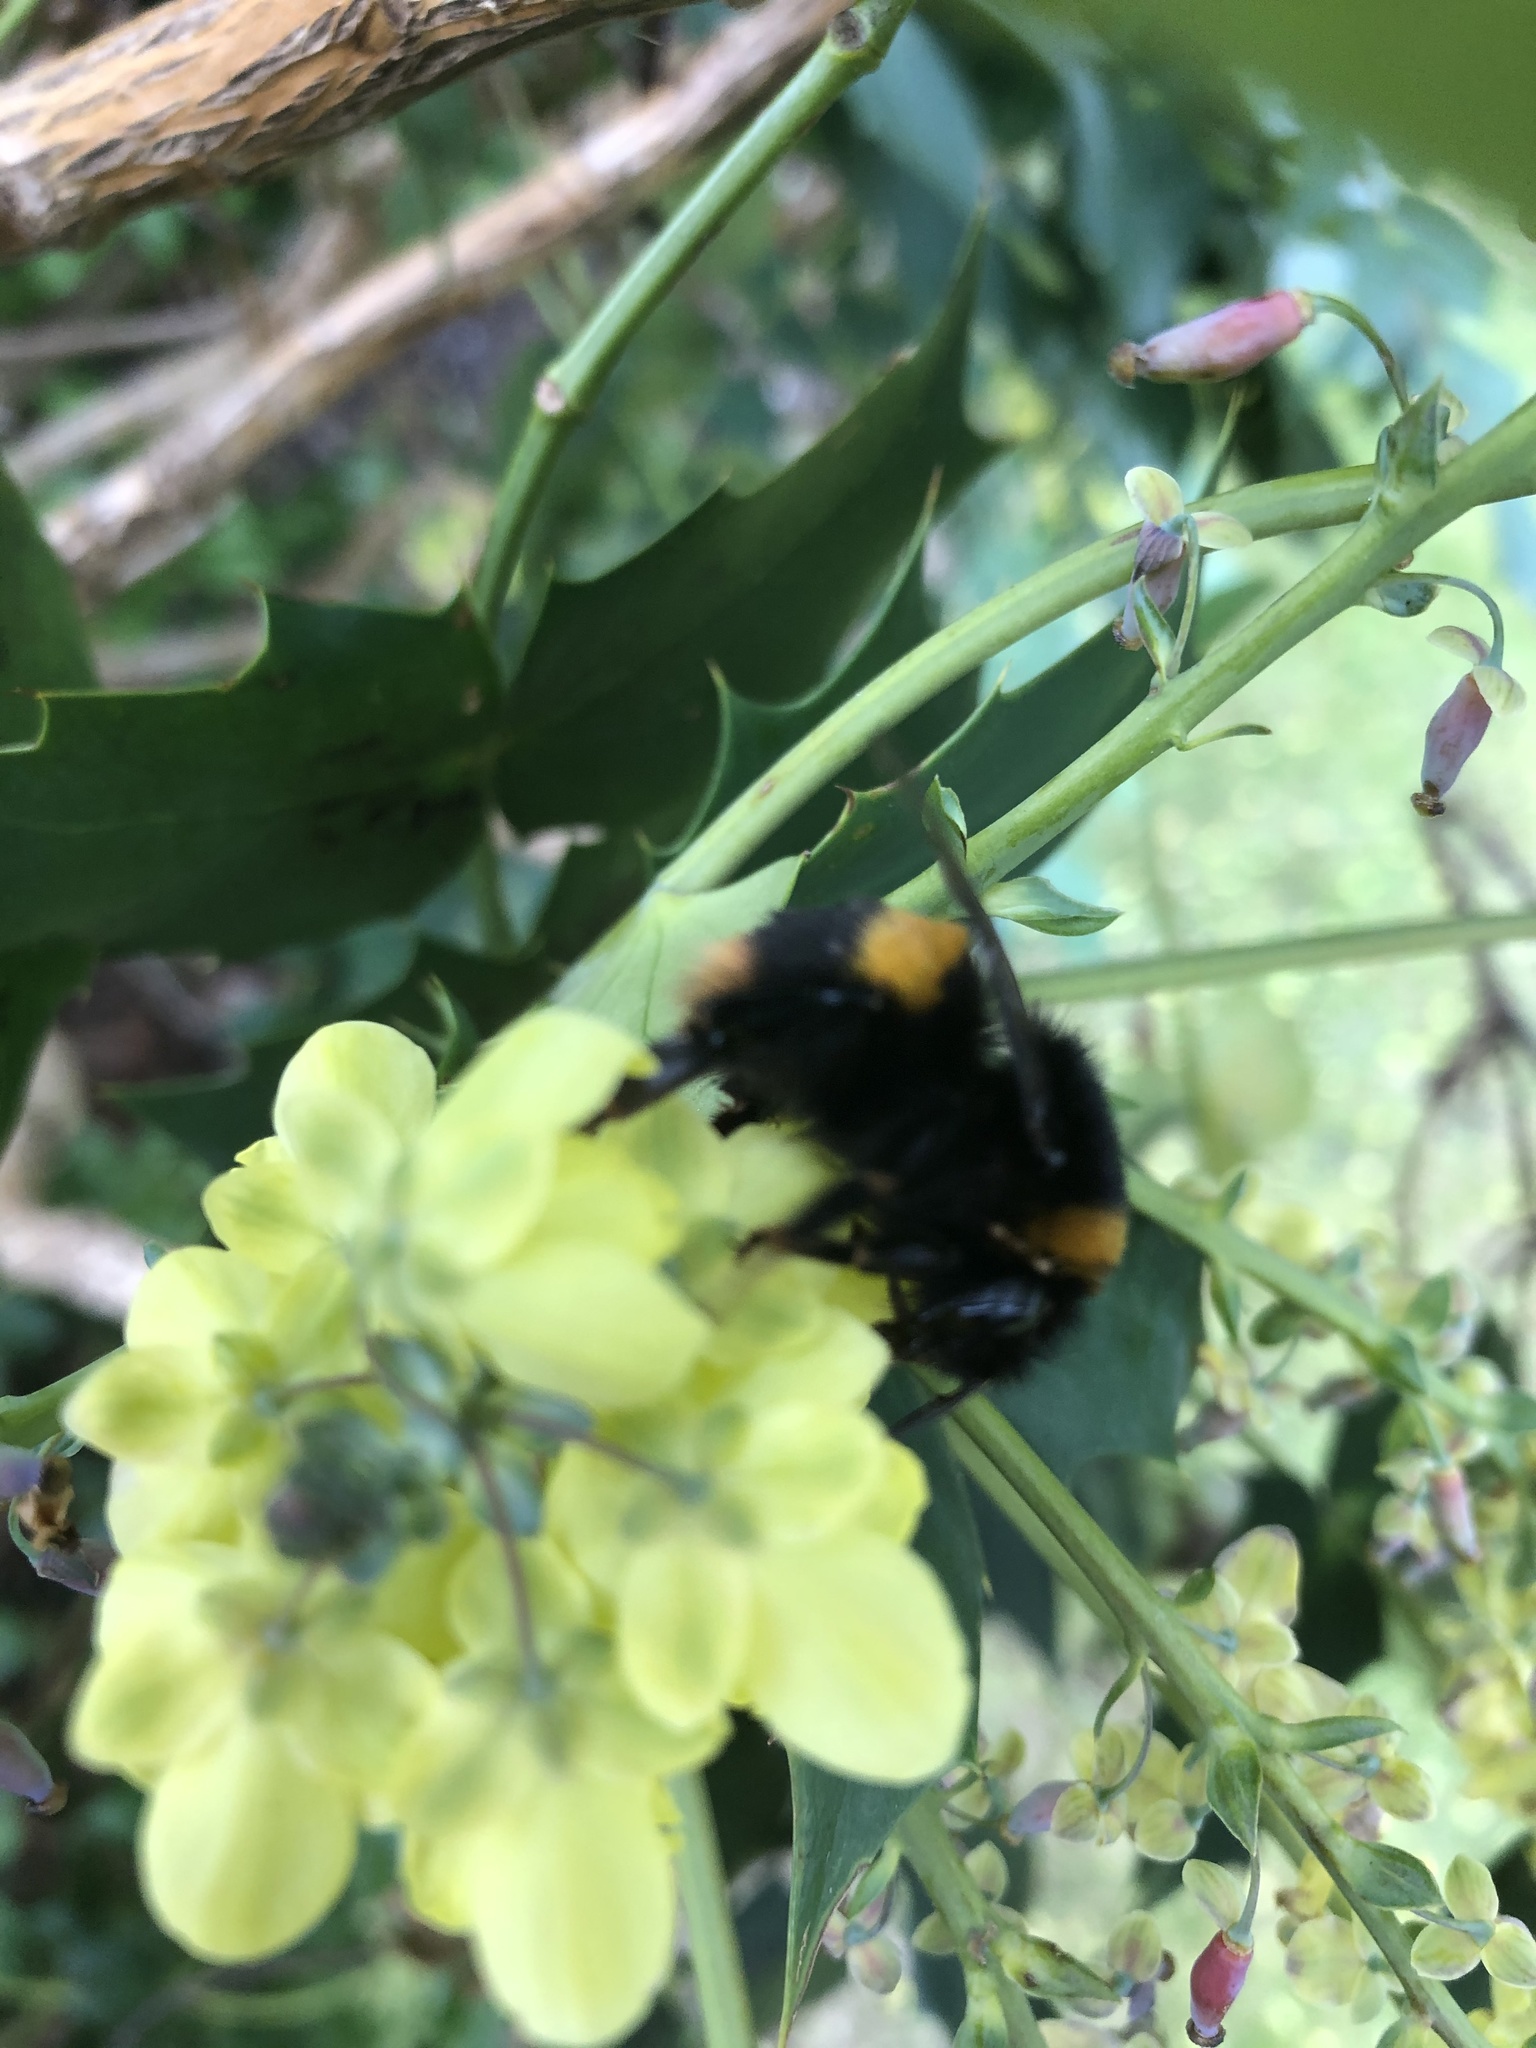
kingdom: Animalia
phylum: Arthropoda
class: Insecta
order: Hymenoptera
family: Apidae
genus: Bombus
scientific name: Bombus terrestris
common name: Buff-tailed bumblebee
